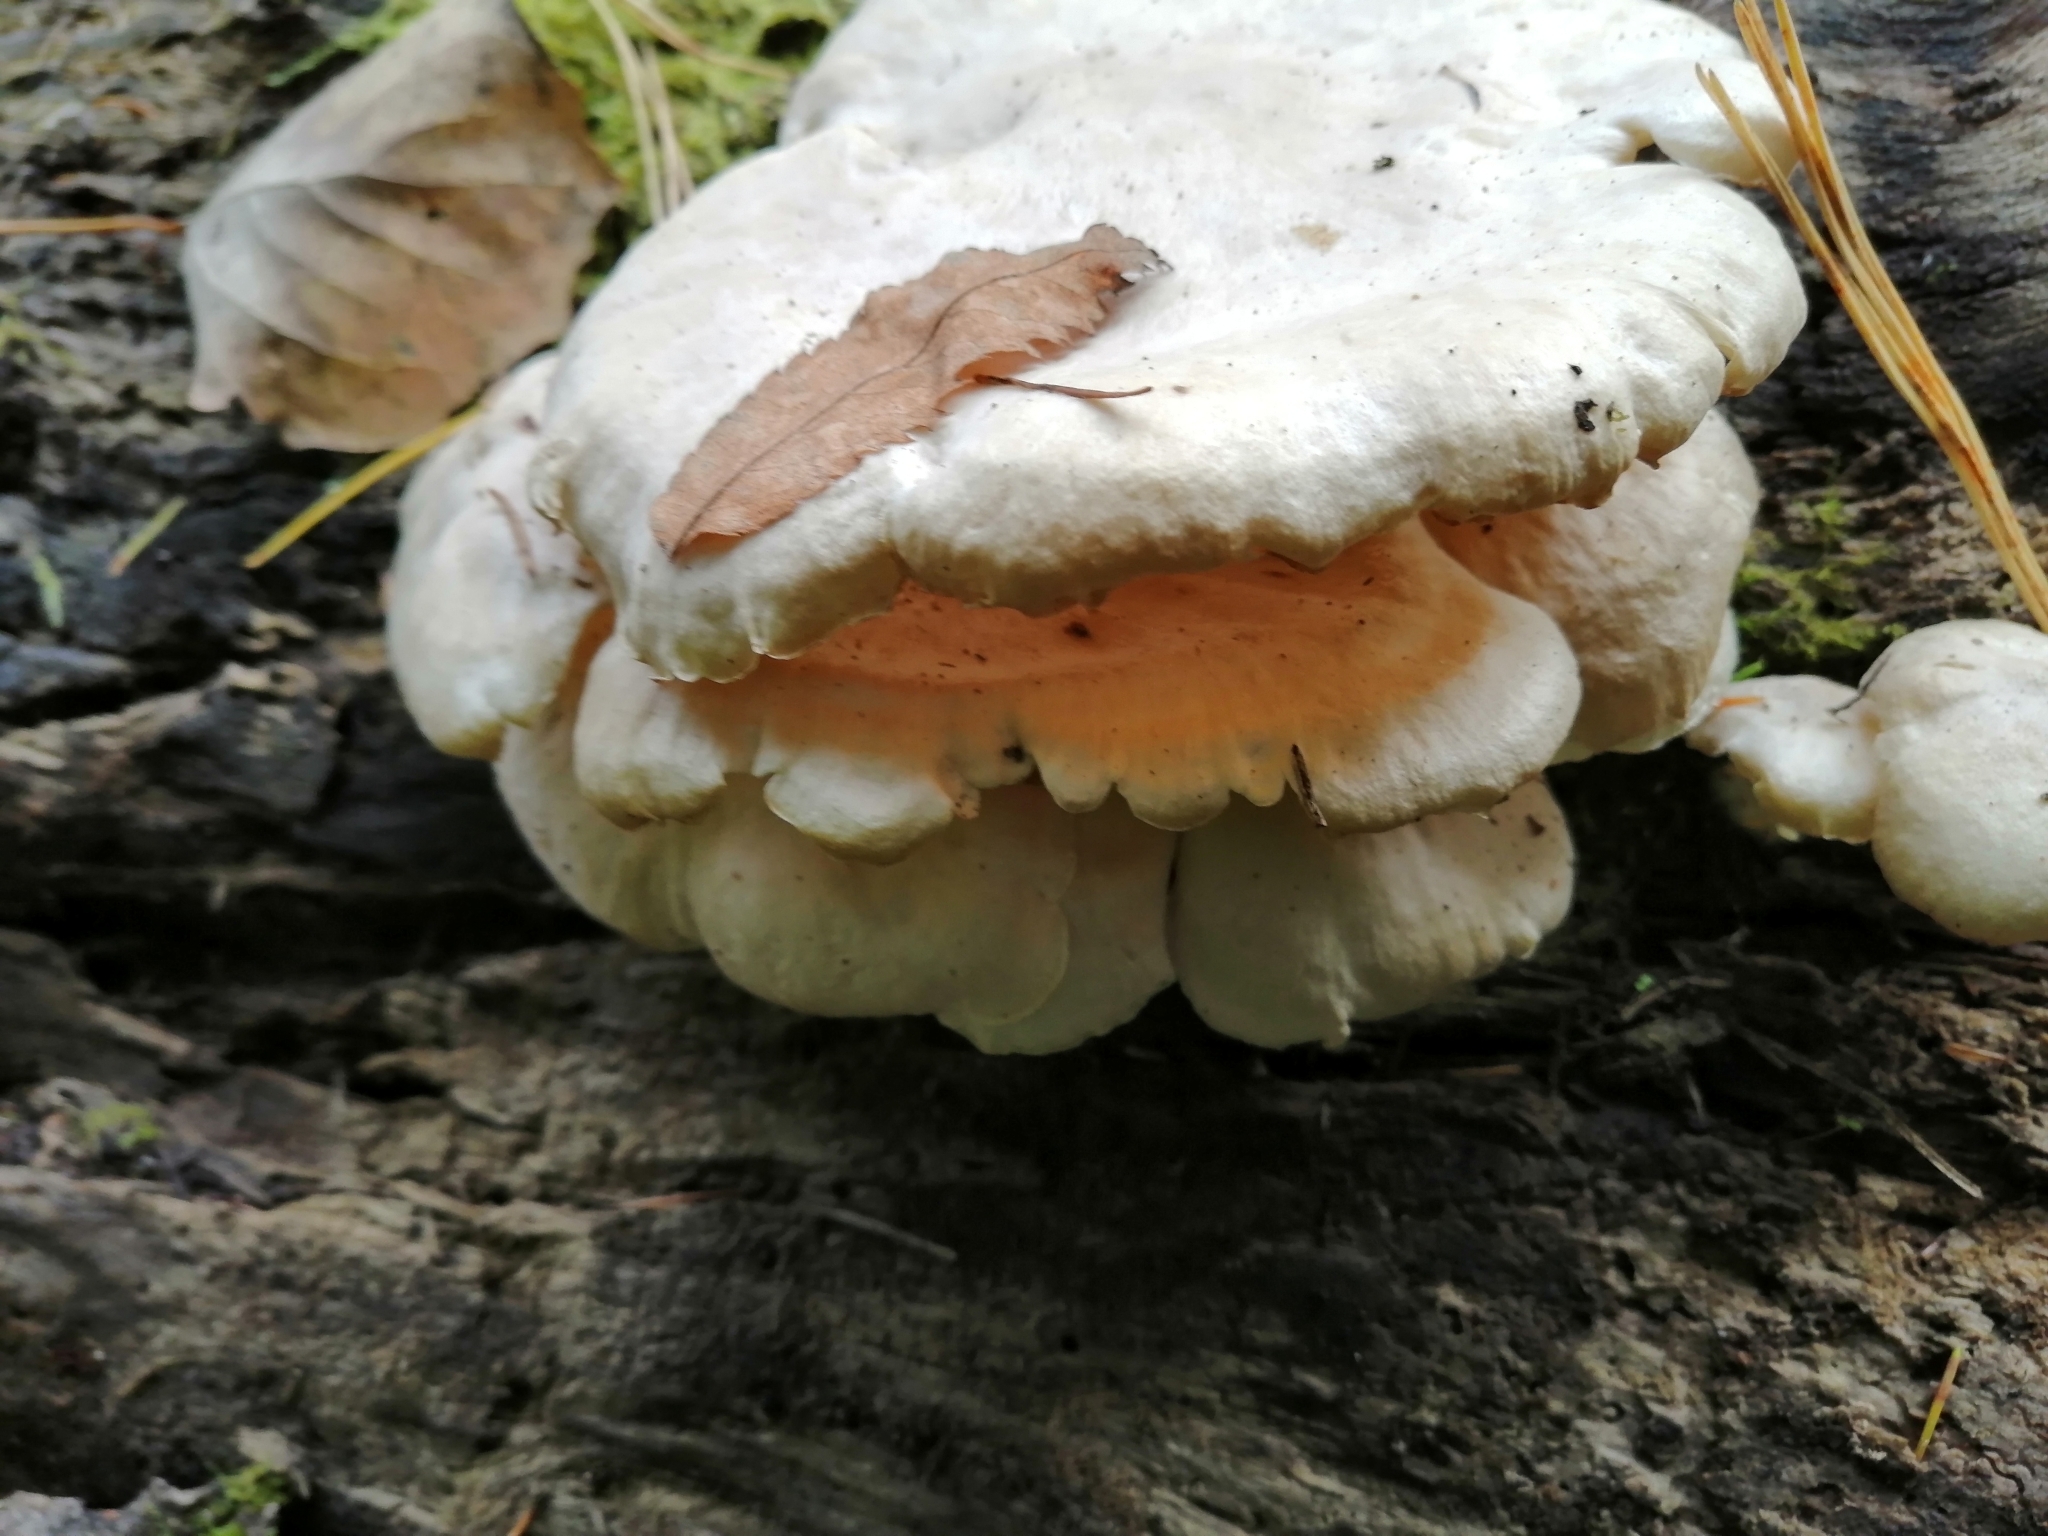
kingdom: Fungi
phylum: Basidiomycota
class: Agaricomycetes
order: Agaricales
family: Lyophyllaceae
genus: Ossicaulis
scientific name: Ossicaulis lignatilis
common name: Mealy oyster
